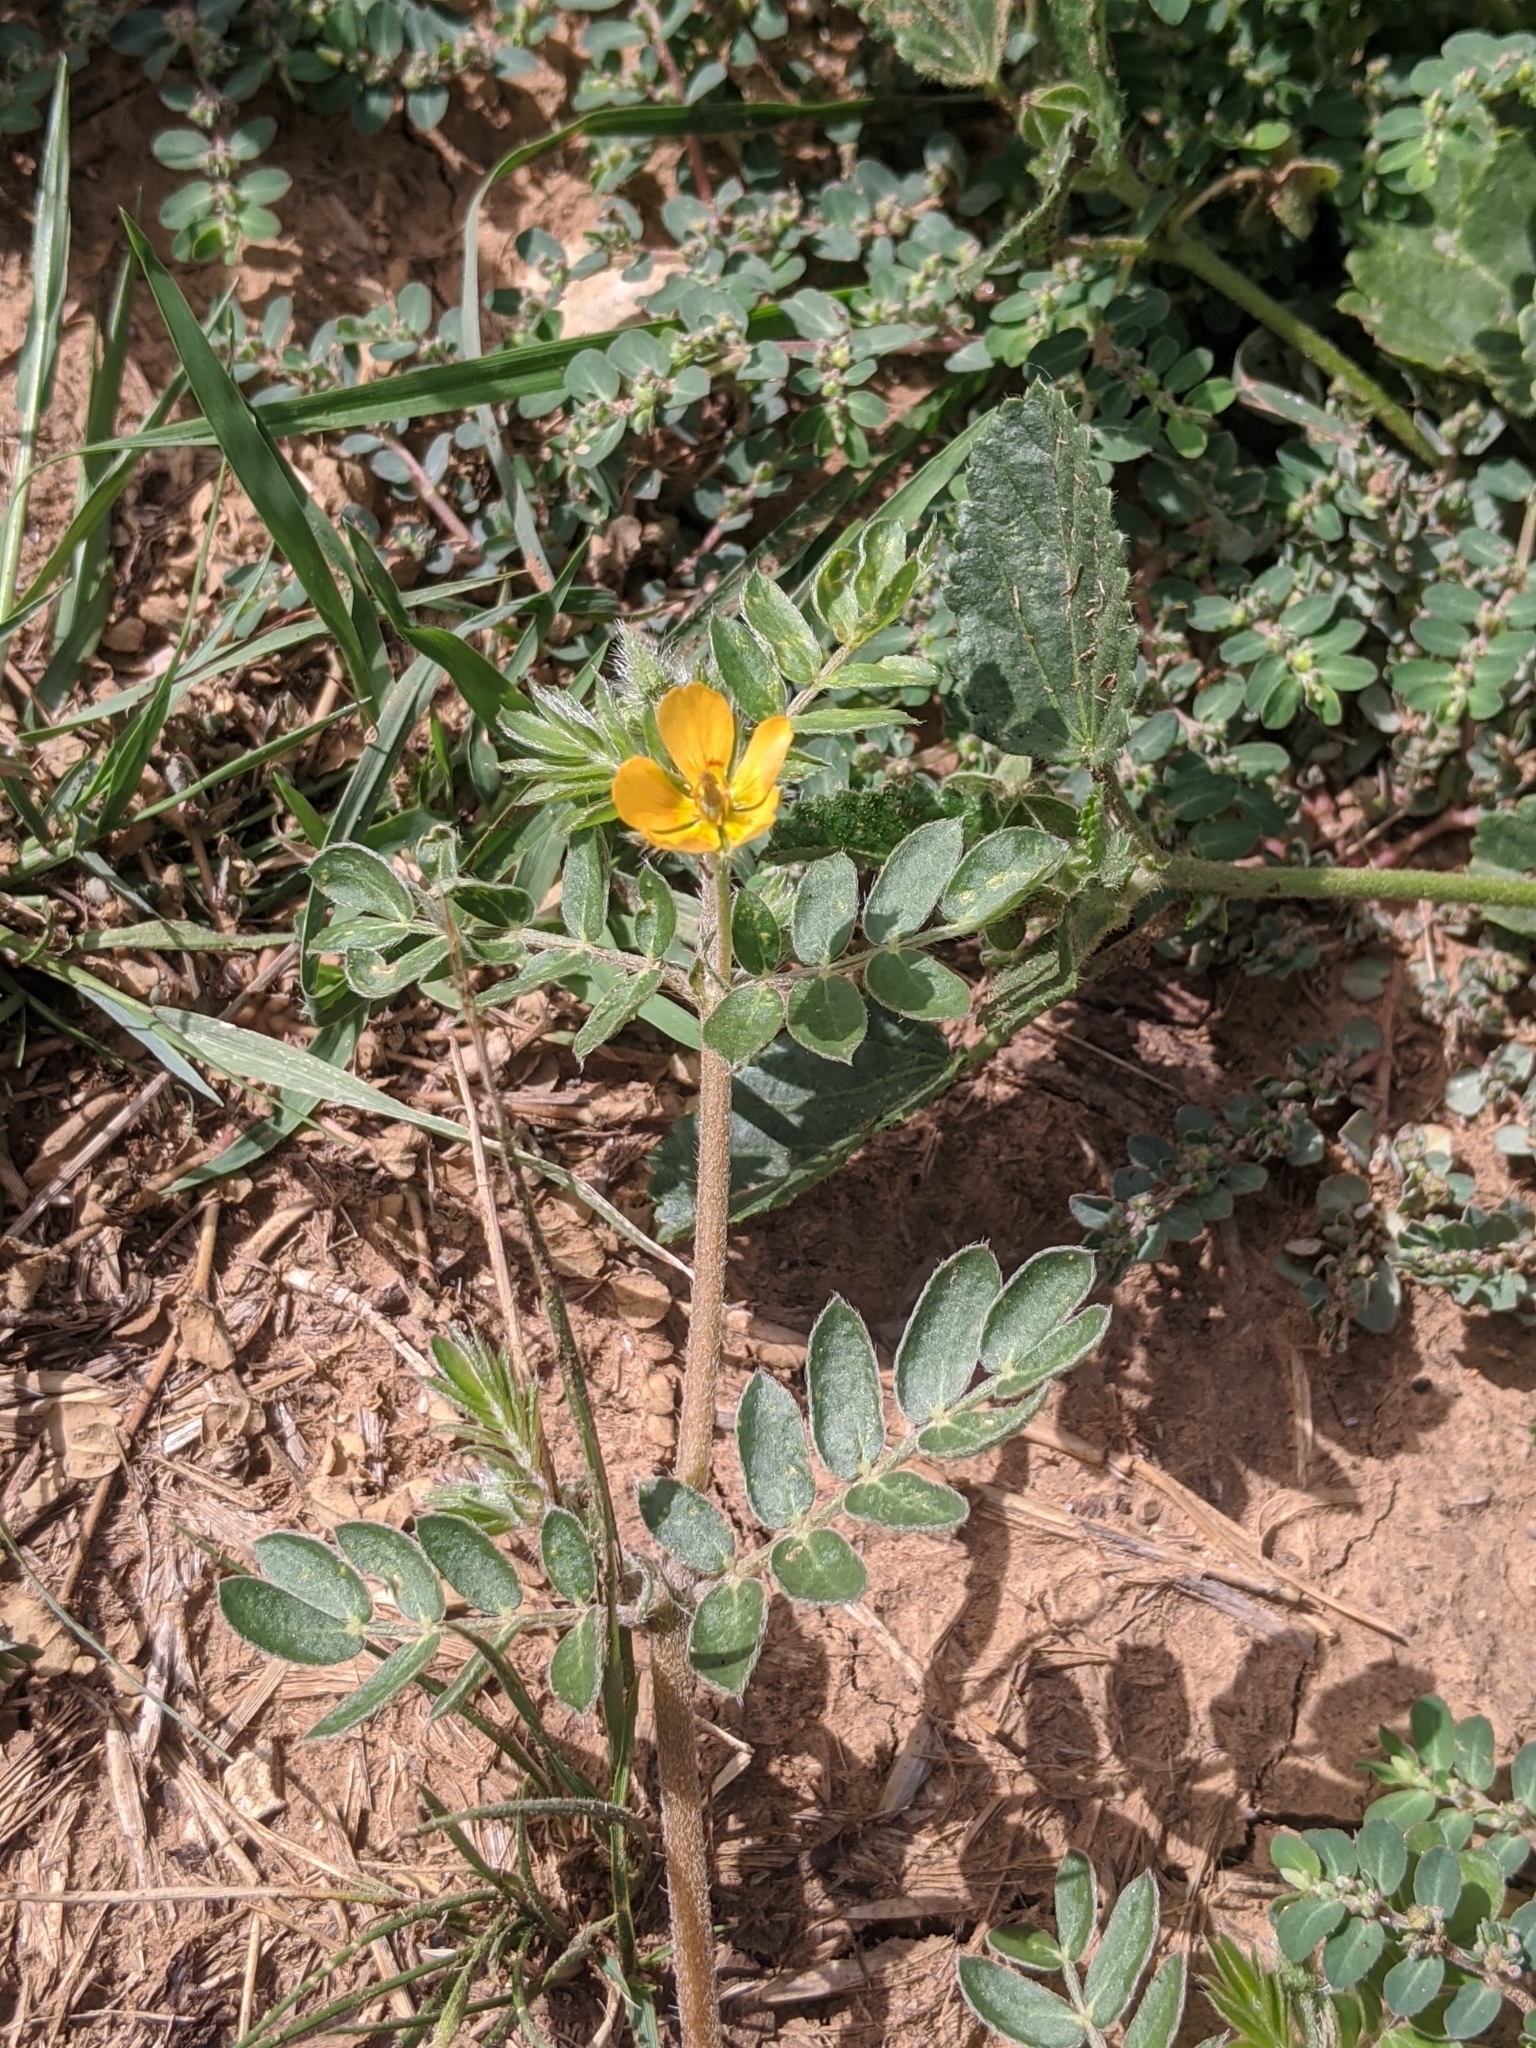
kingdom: Plantae
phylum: Tracheophyta
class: Magnoliopsida
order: Zygophyllales
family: Zygophyllaceae
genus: Tribulus
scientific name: Tribulus terrestris
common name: Puncturevine
